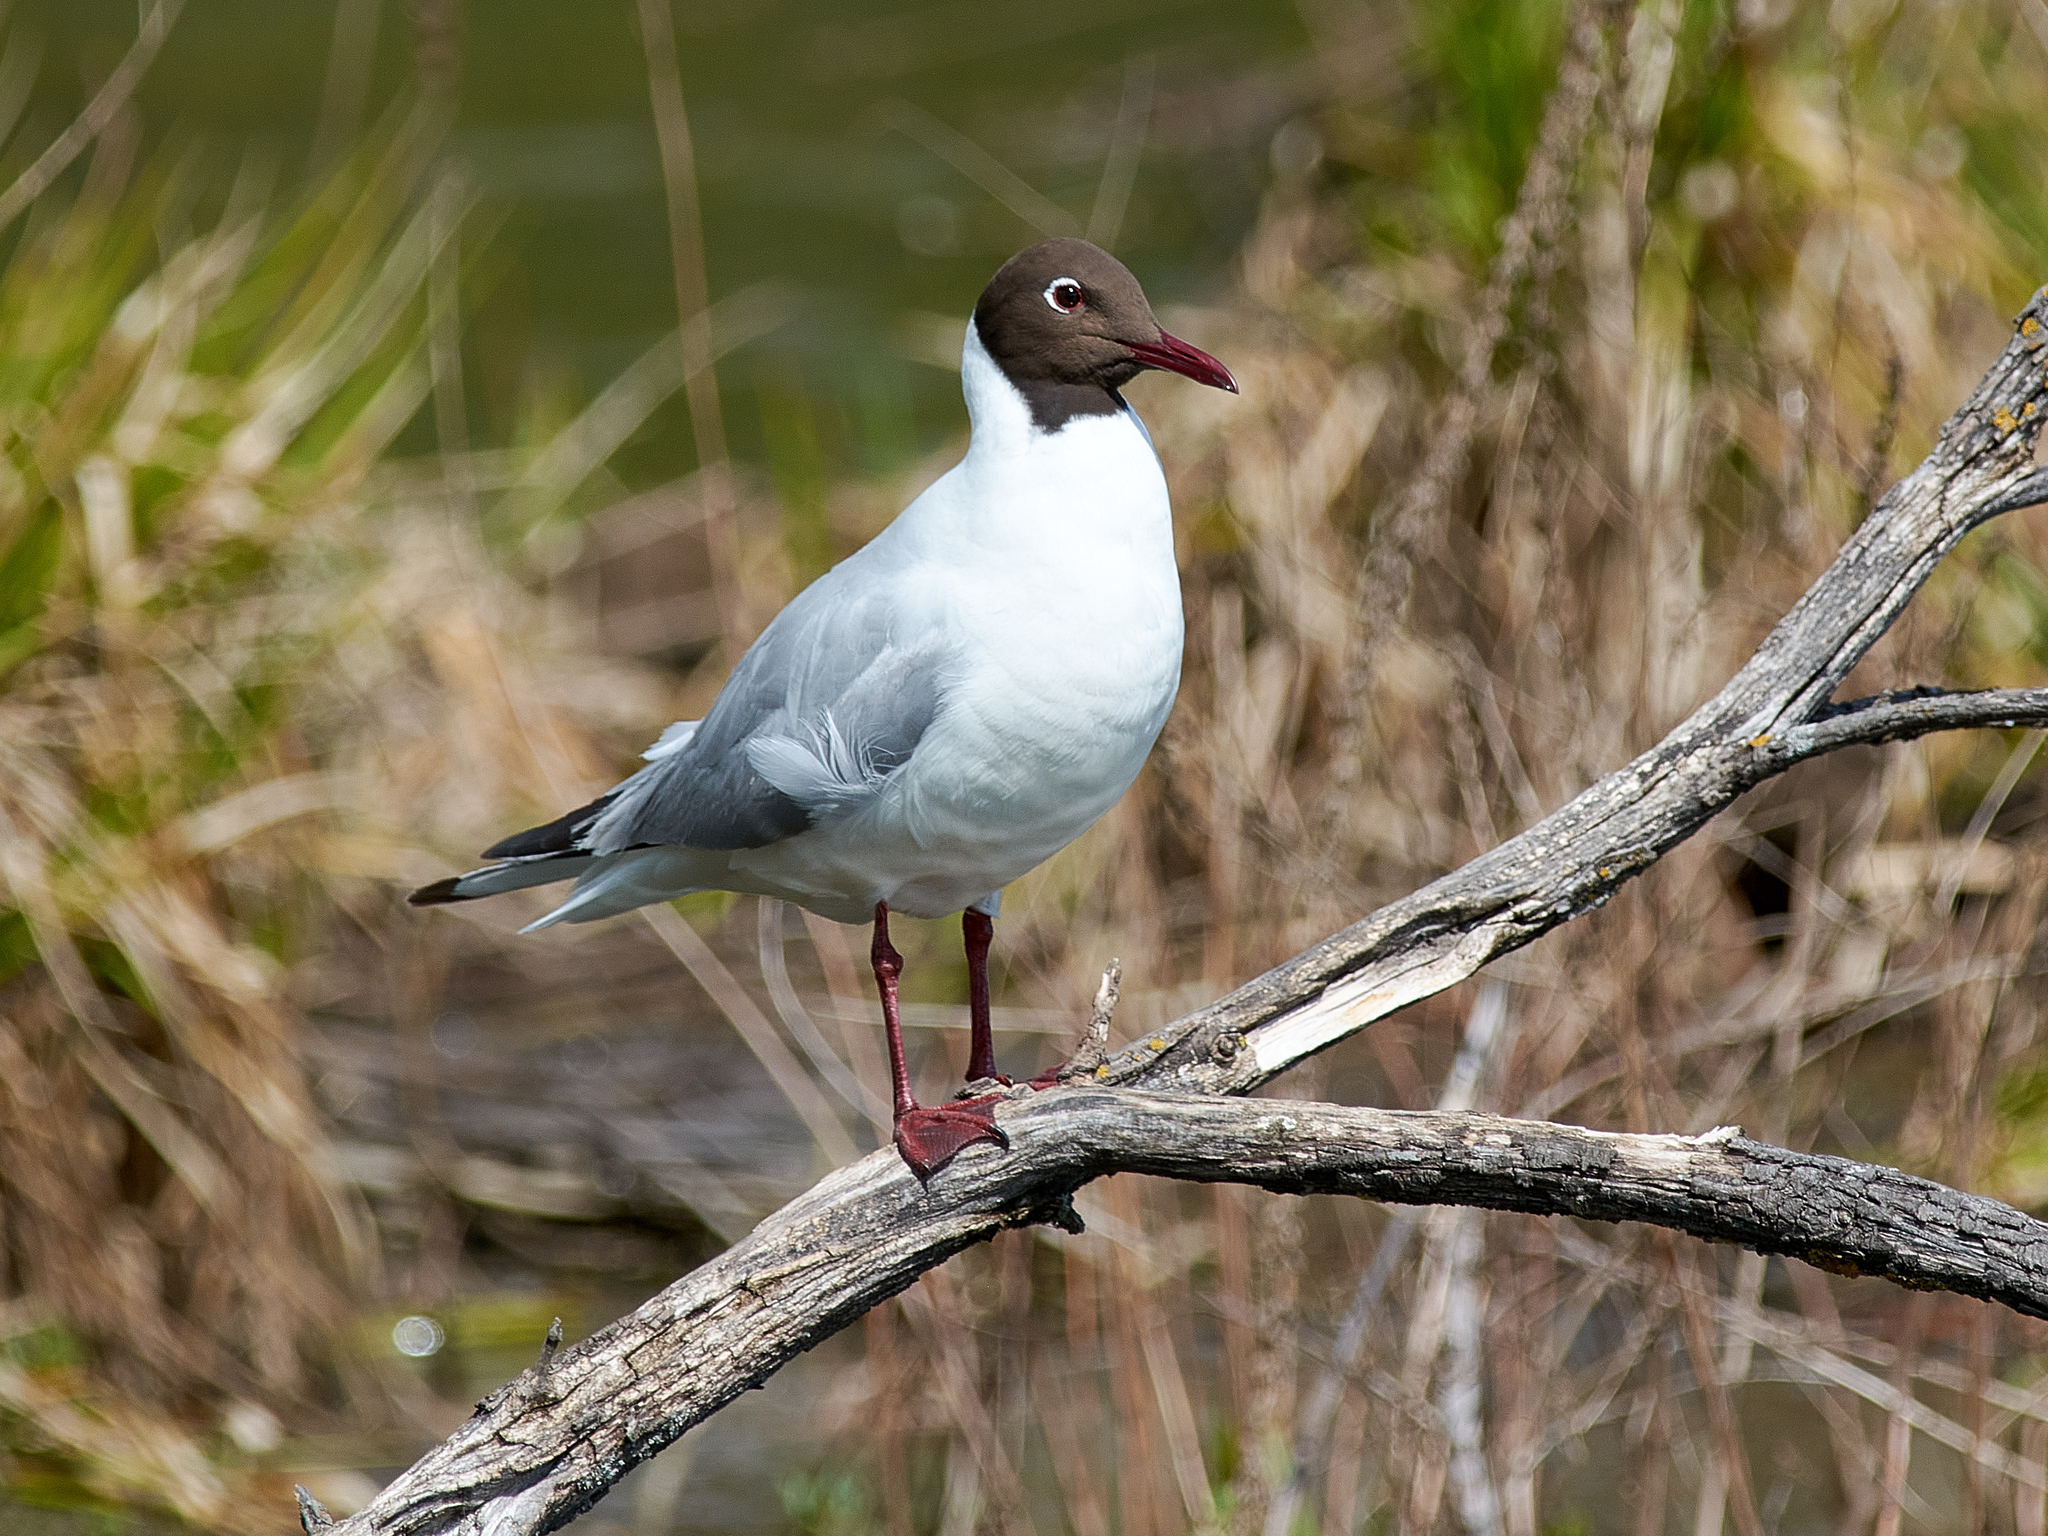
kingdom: Animalia
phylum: Chordata
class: Aves
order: Charadriiformes
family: Laridae
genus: Chroicocephalus
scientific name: Chroicocephalus ridibundus
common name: Black-headed gull
